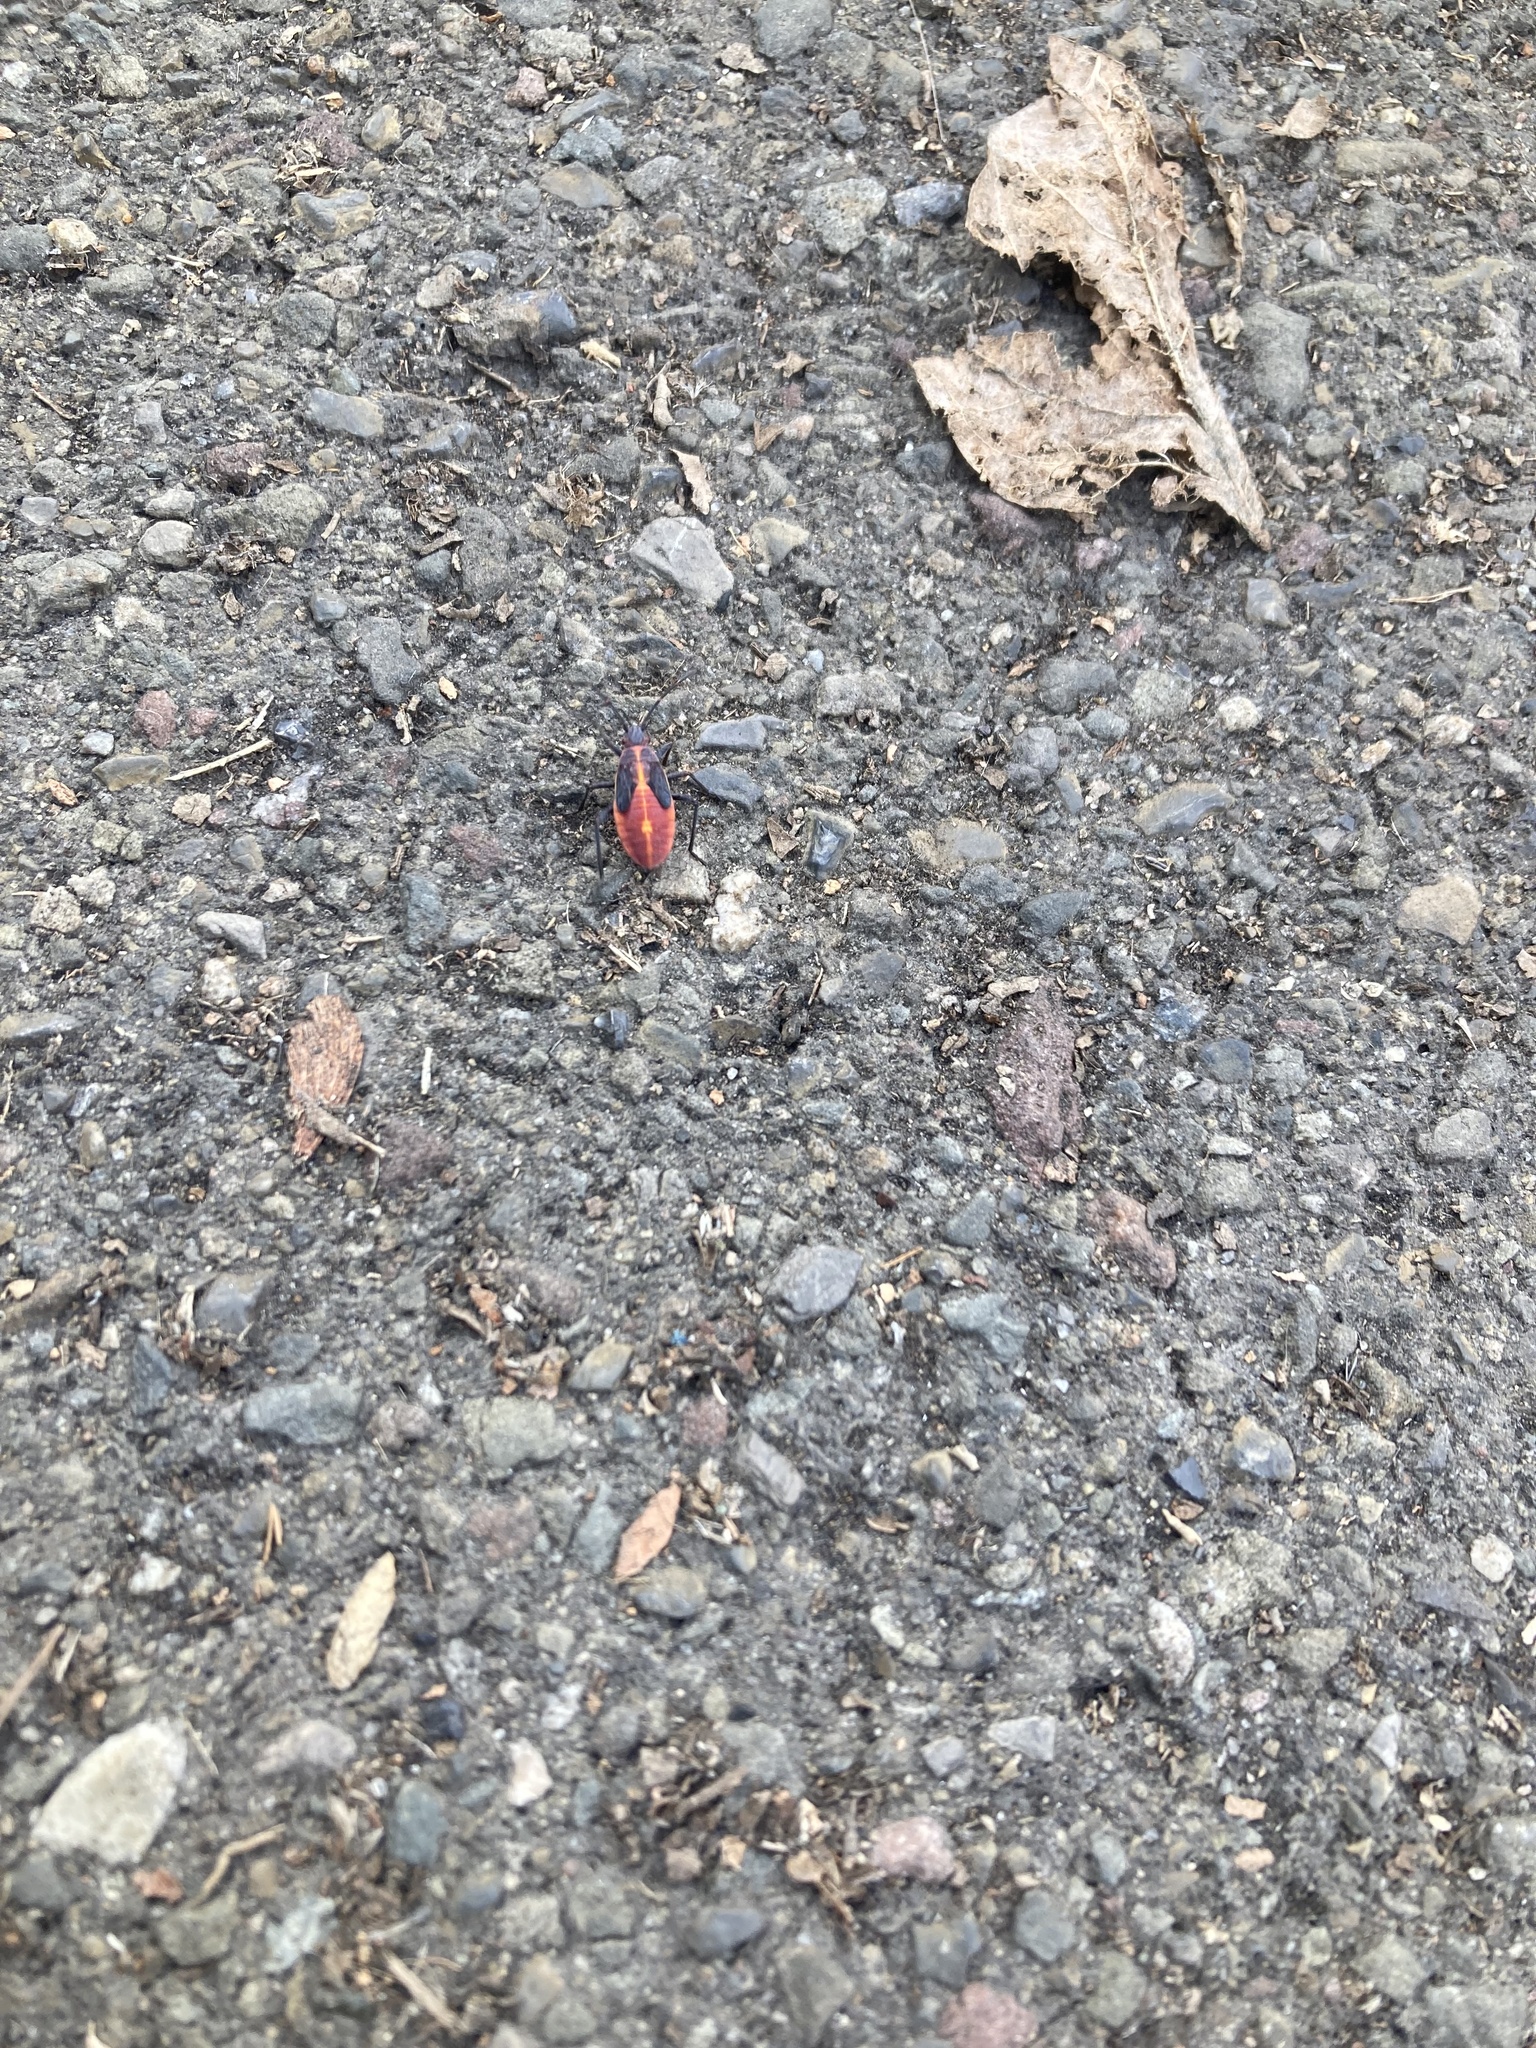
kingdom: Animalia
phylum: Arthropoda
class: Insecta
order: Hemiptera
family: Rhopalidae
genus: Boisea
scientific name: Boisea trivittata
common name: Boxelder bug
